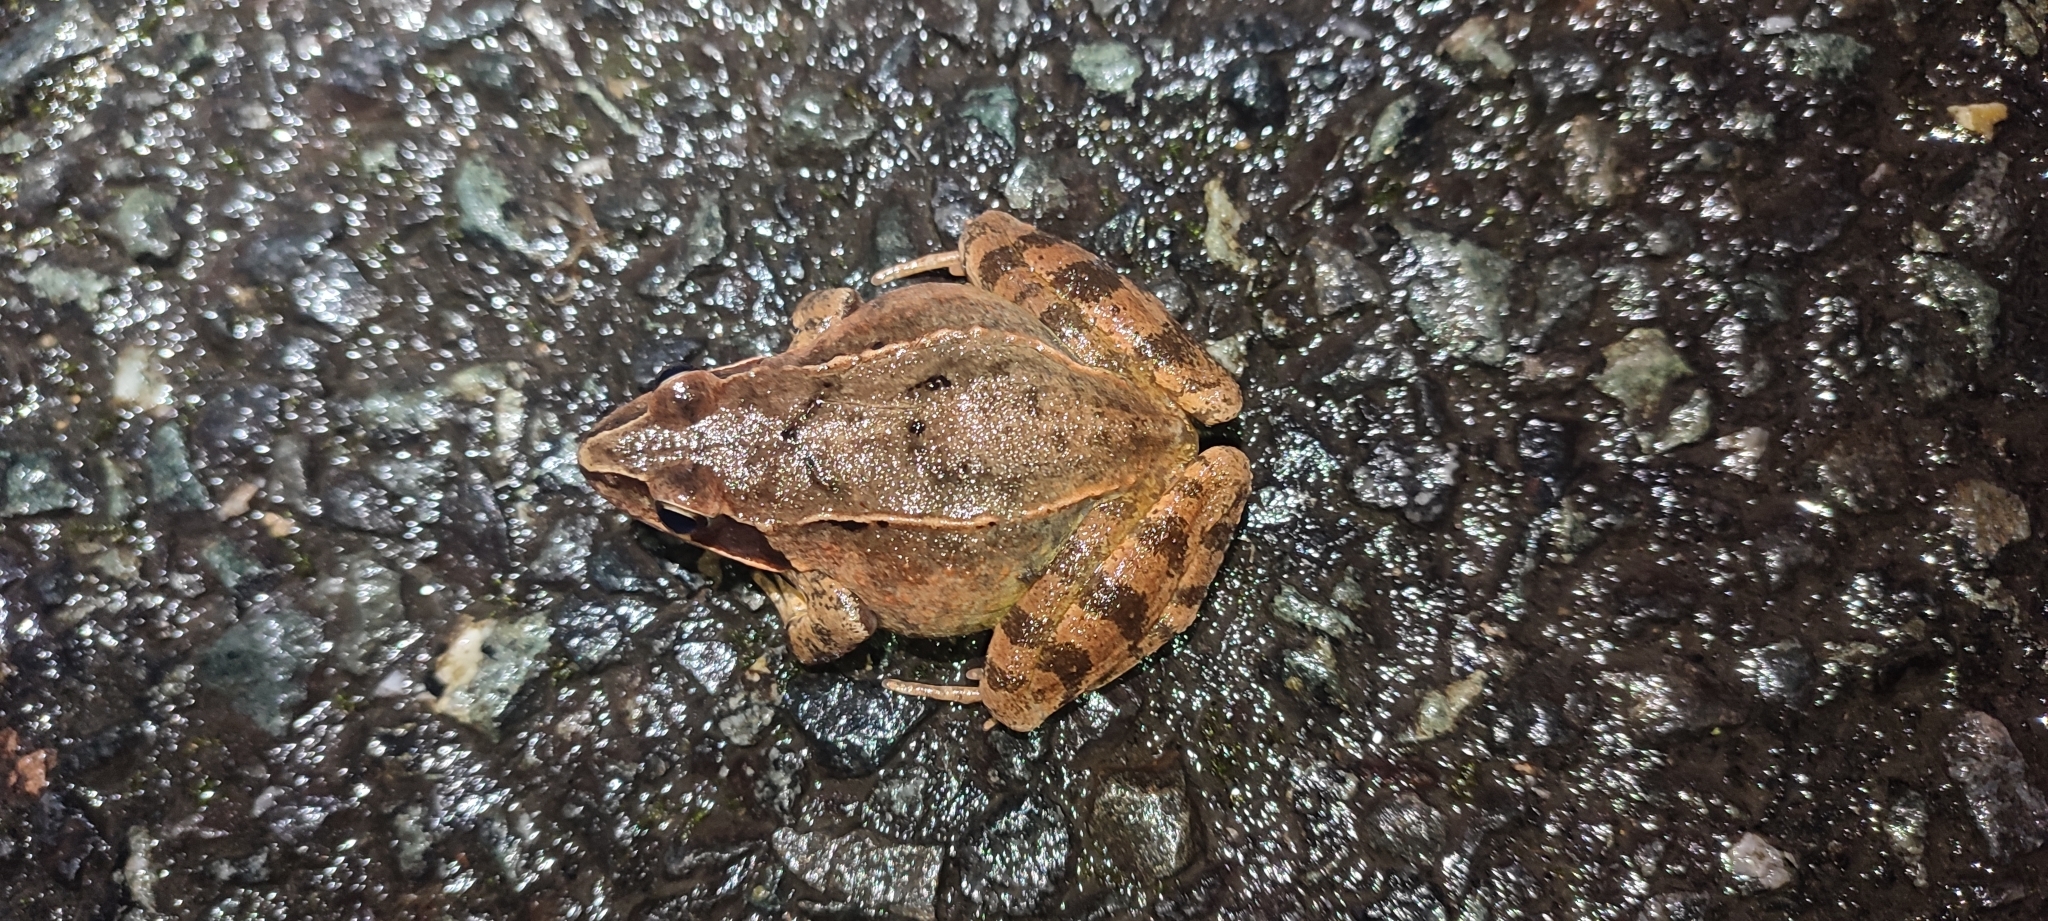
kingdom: Animalia
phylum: Chordata
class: Amphibia
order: Anura
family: Ranidae
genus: Rana
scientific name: Rana dalmatina
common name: Agile frog
